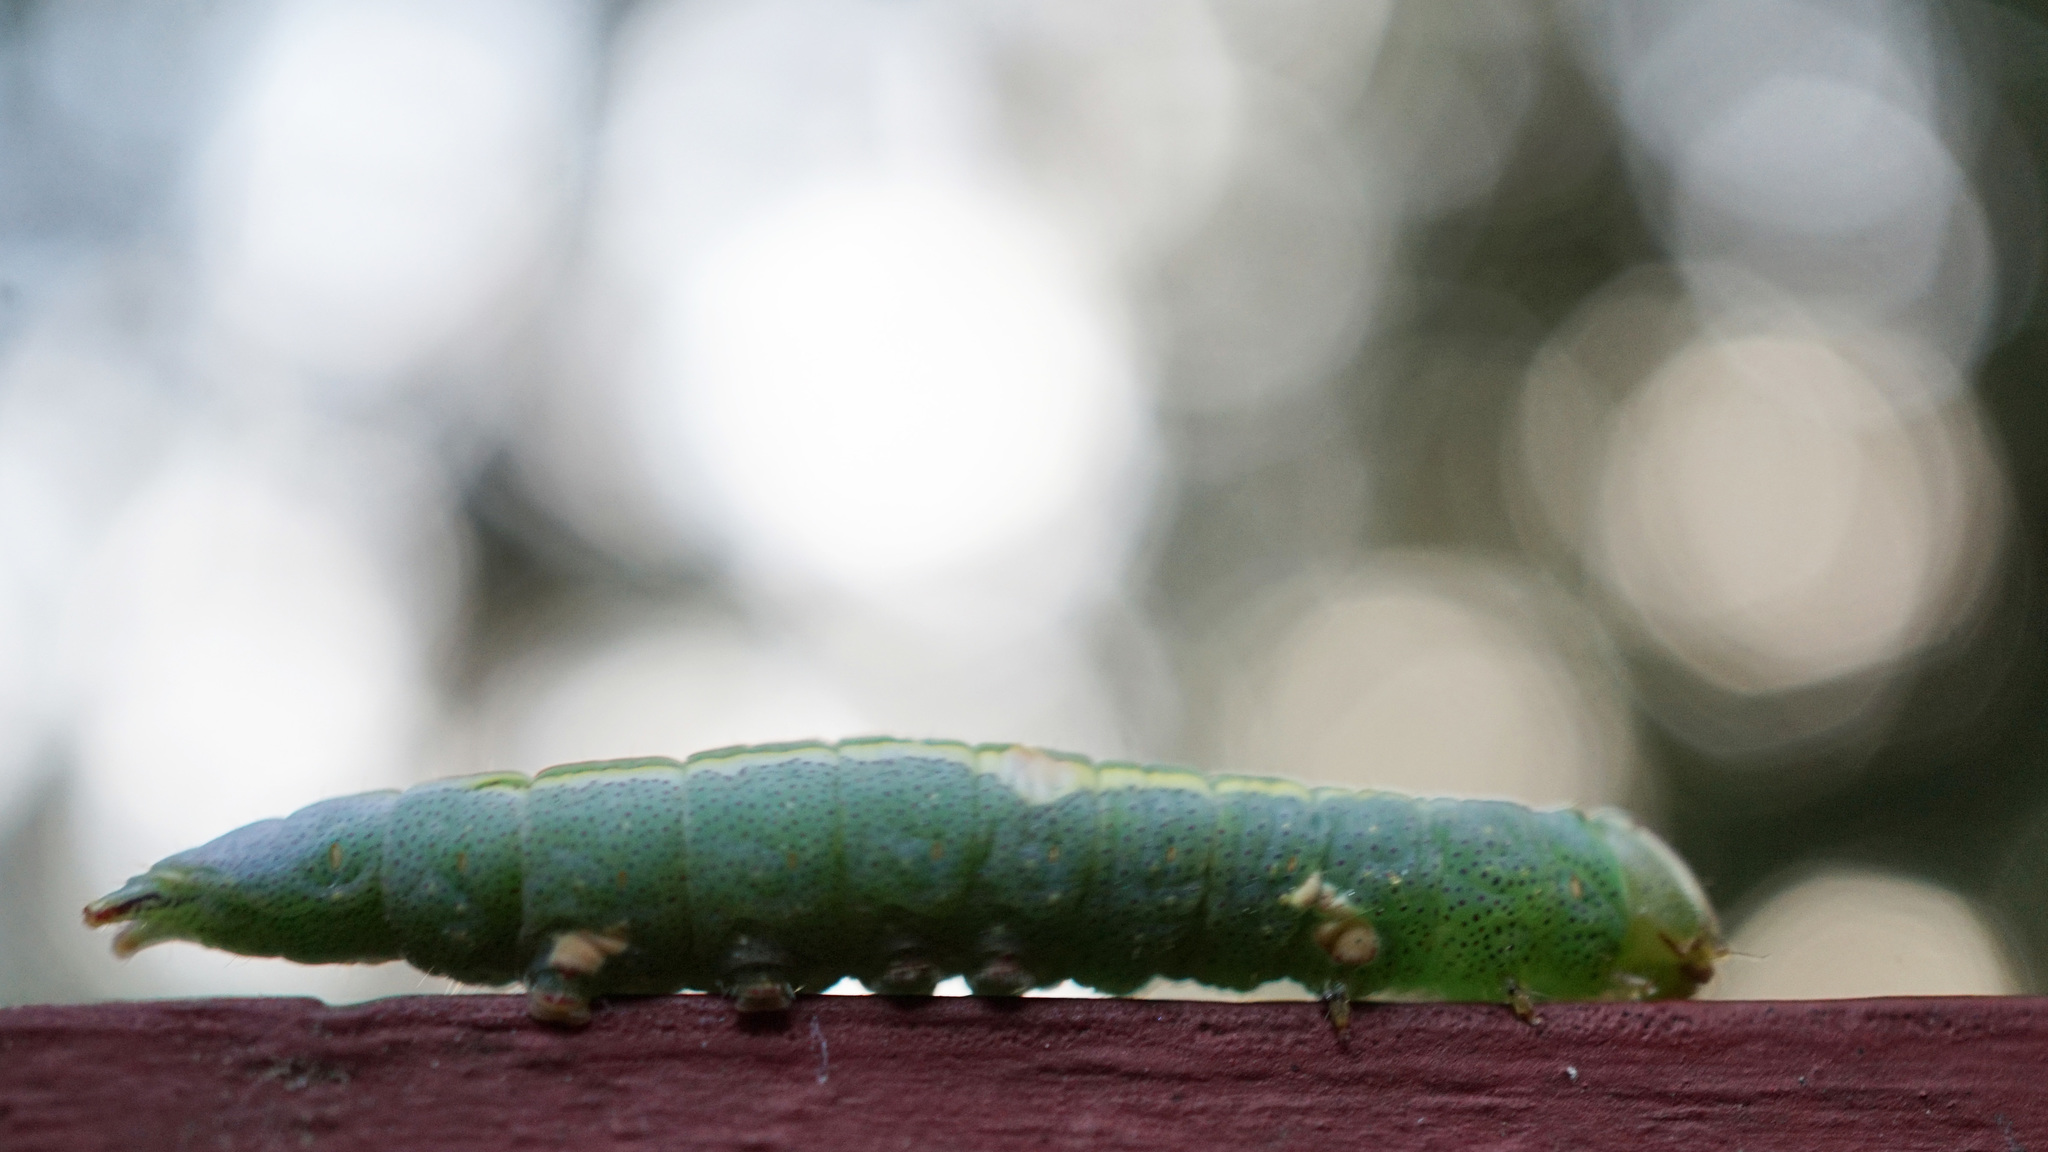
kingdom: Animalia
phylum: Arthropoda
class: Insecta
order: Lepidoptera
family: Notodontidae
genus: Disphragis
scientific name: Disphragis Cecrita guttivitta
